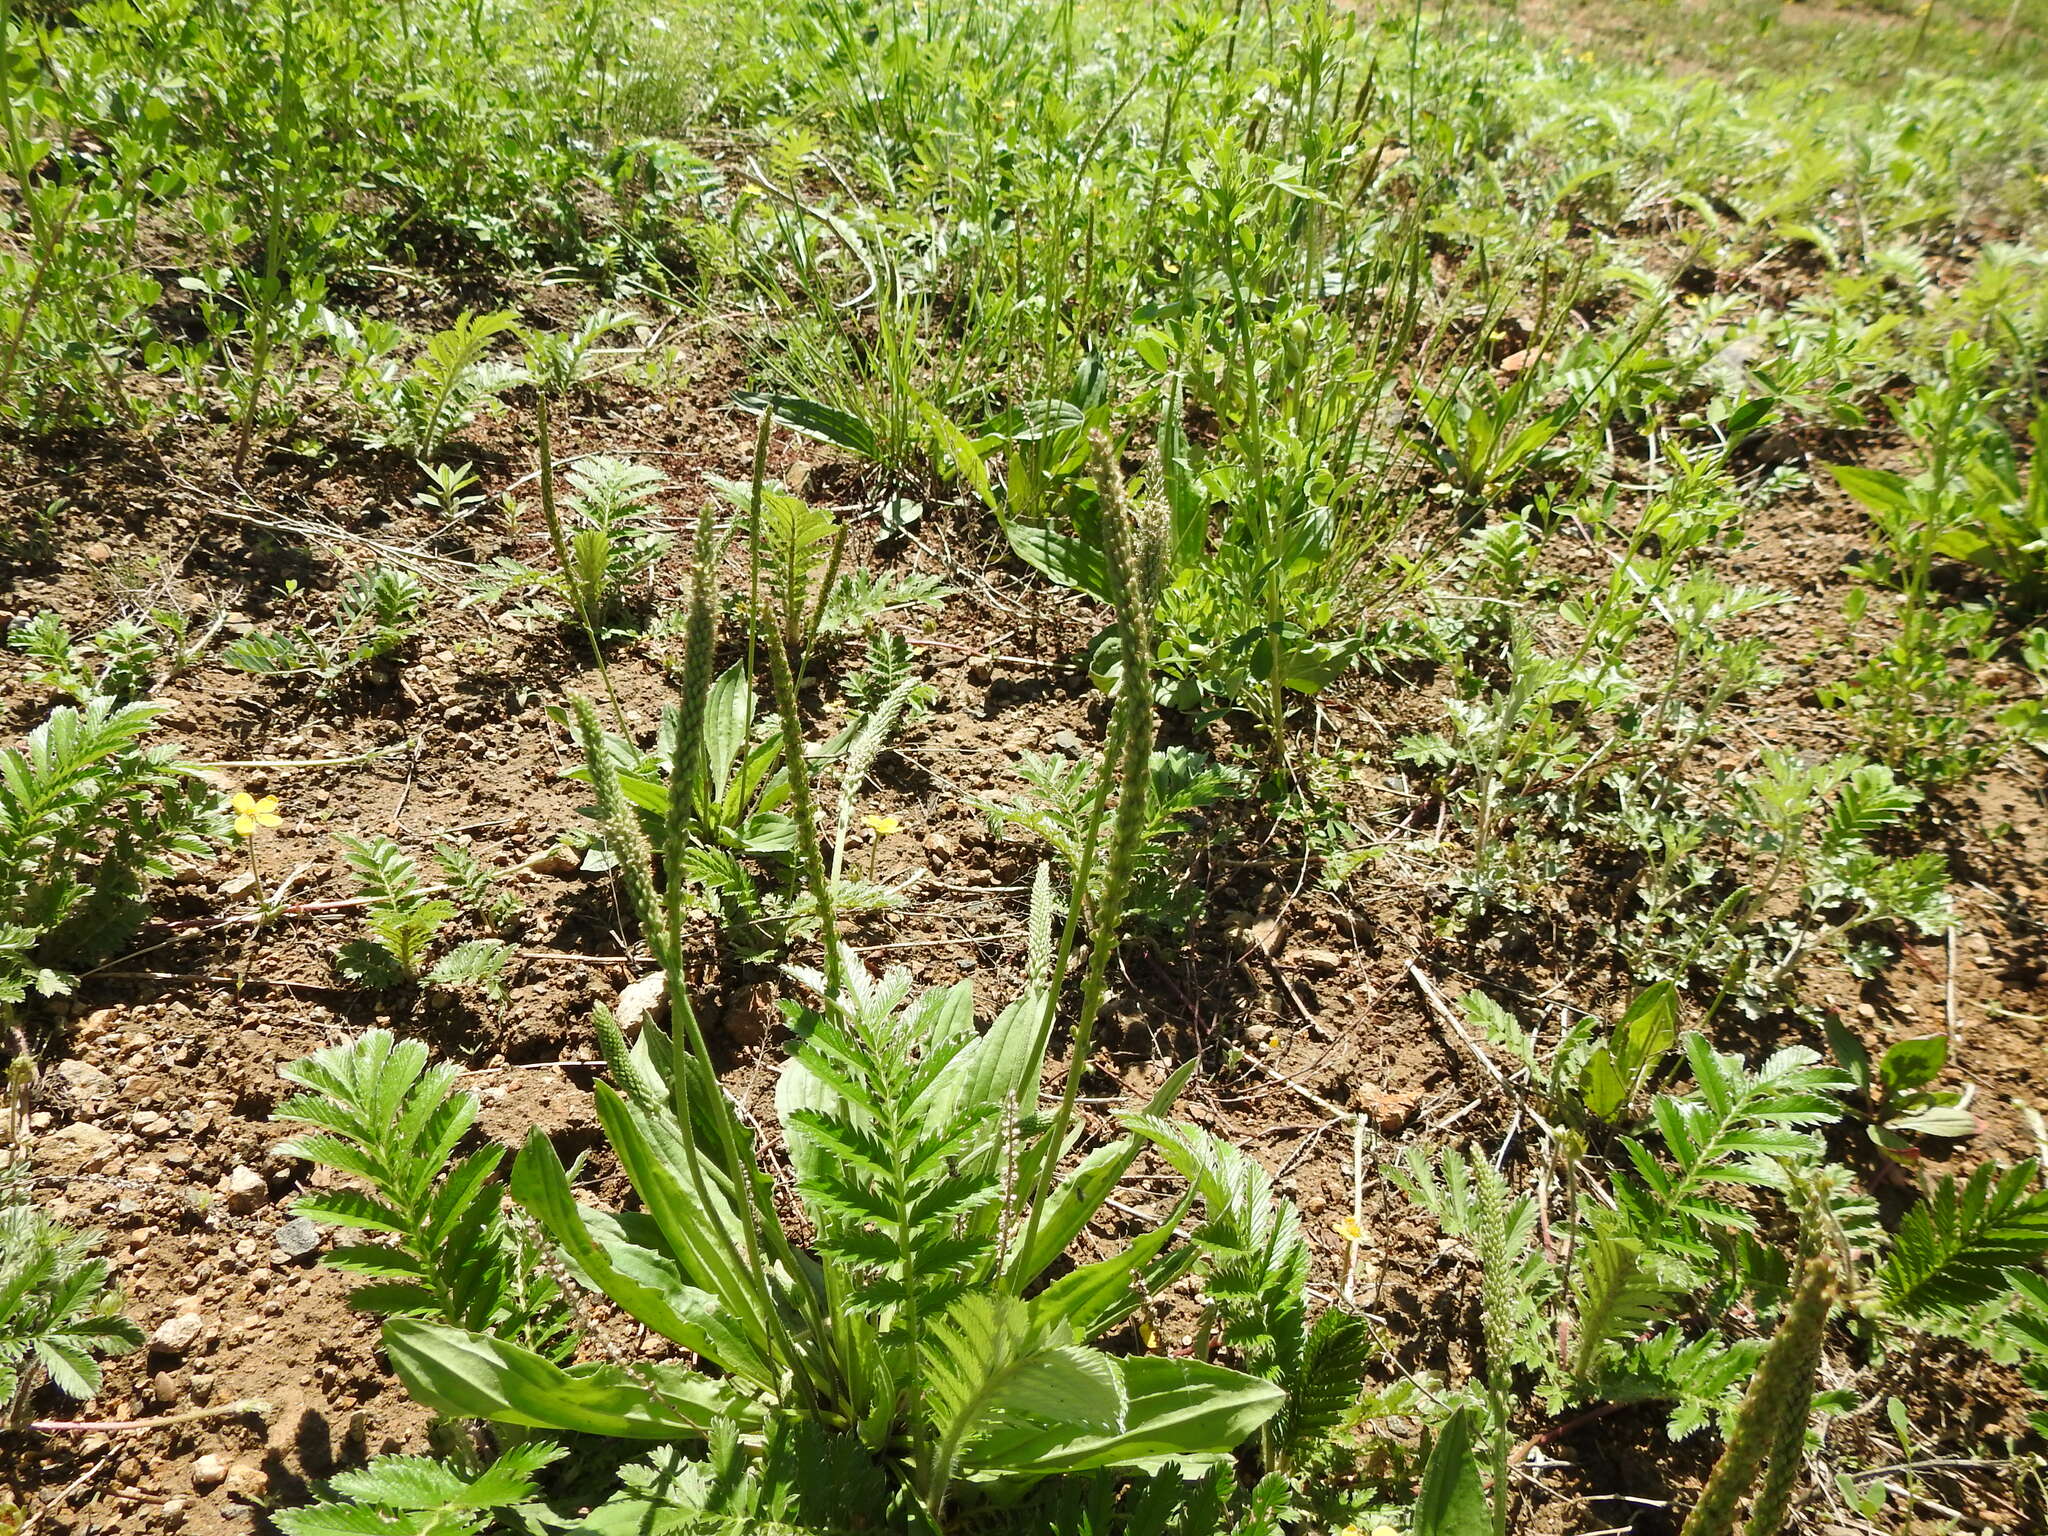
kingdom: Plantae
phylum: Tracheophyta
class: Magnoliopsida
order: Lamiales
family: Plantaginaceae
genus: Plantago
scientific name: Plantago depressa
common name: Depressed plantain
